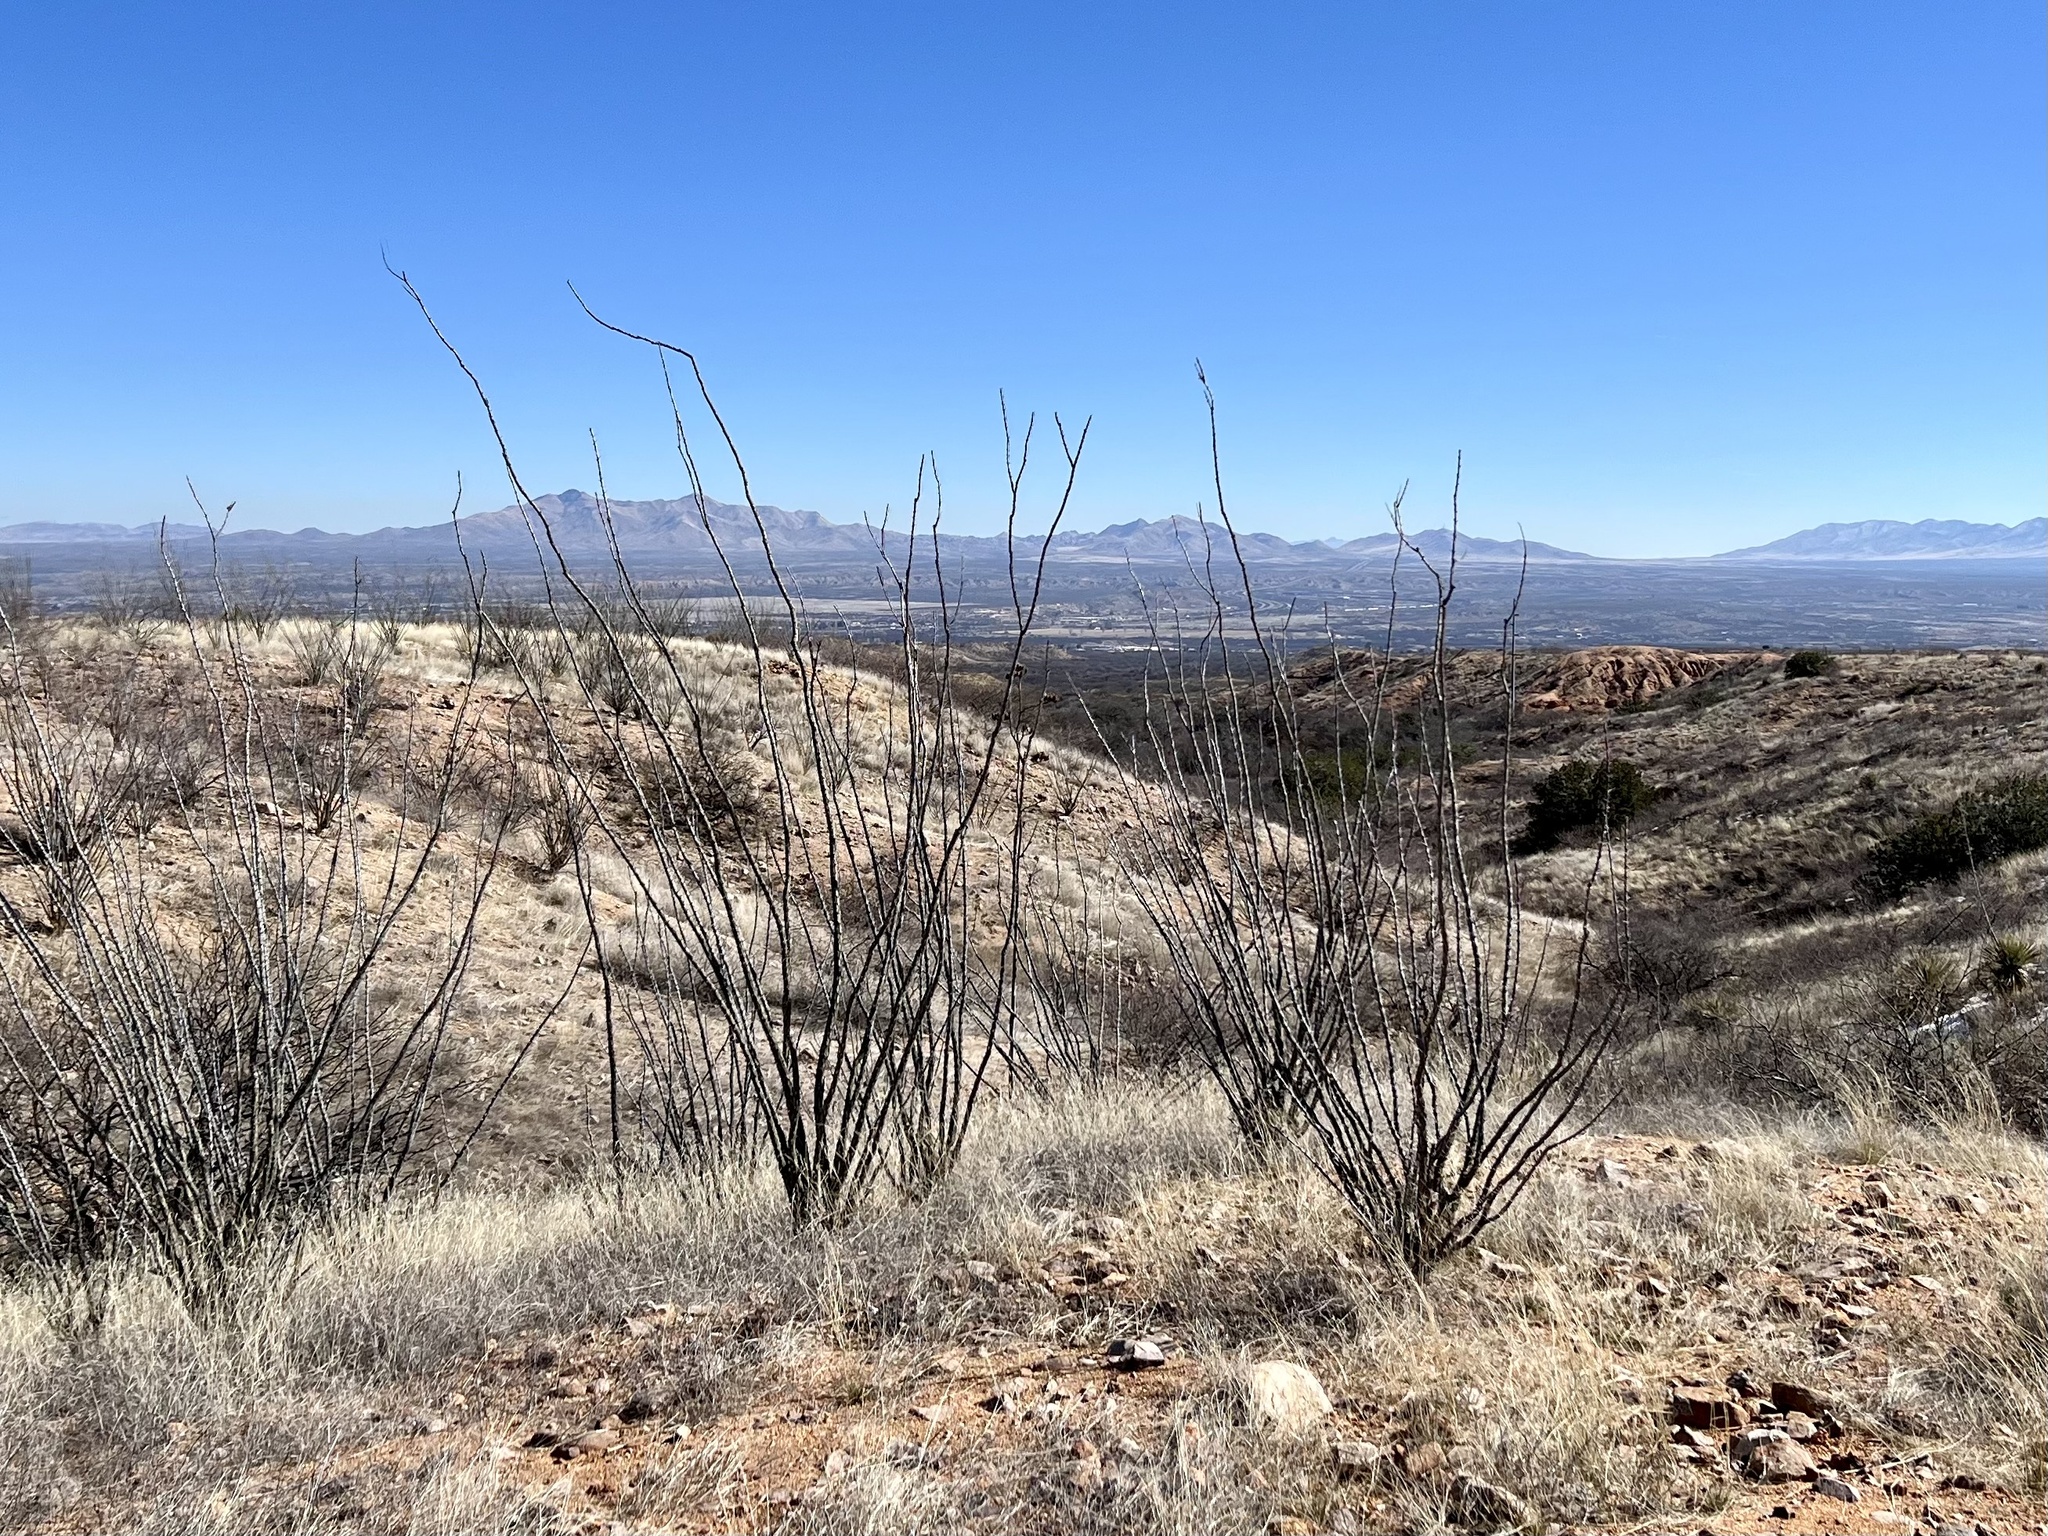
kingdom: Plantae
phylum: Tracheophyta
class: Magnoliopsida
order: Ericales
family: Fouquieriaceae
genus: Fouquieria
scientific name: Fouquieria splendens
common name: Vine-cactus
